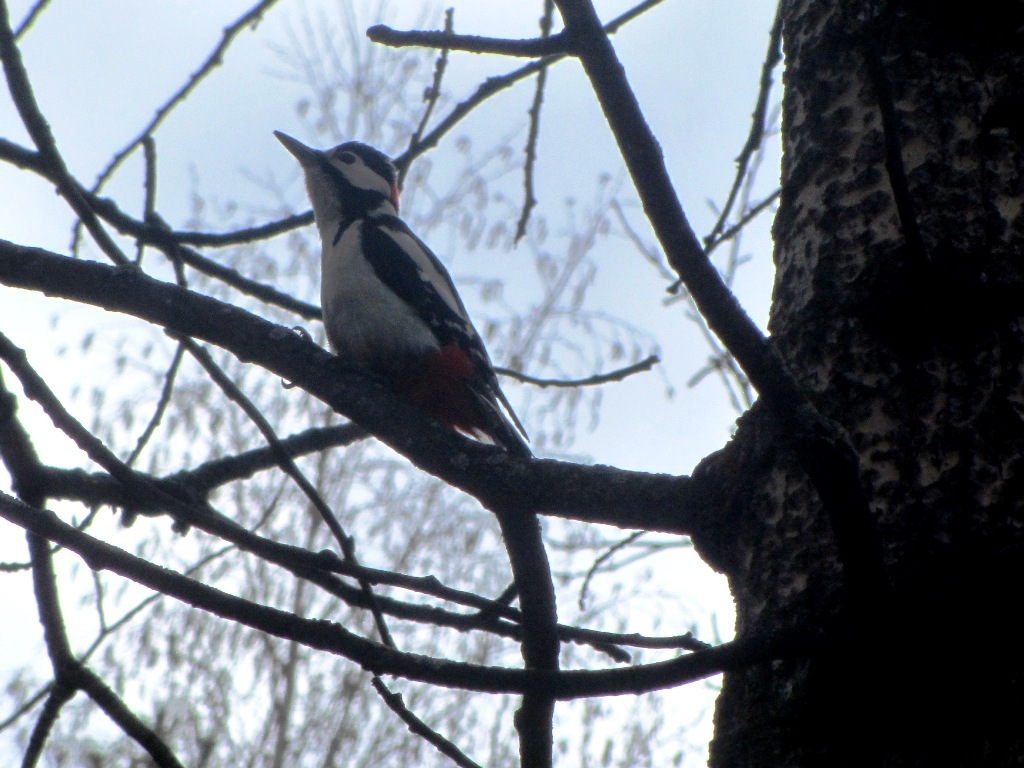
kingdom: Animalia
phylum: Chordata
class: Aves
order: Piciformes
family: Picidae
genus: Dendrocopos
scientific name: Dendrocopos major
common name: Great spotted woodpecker
